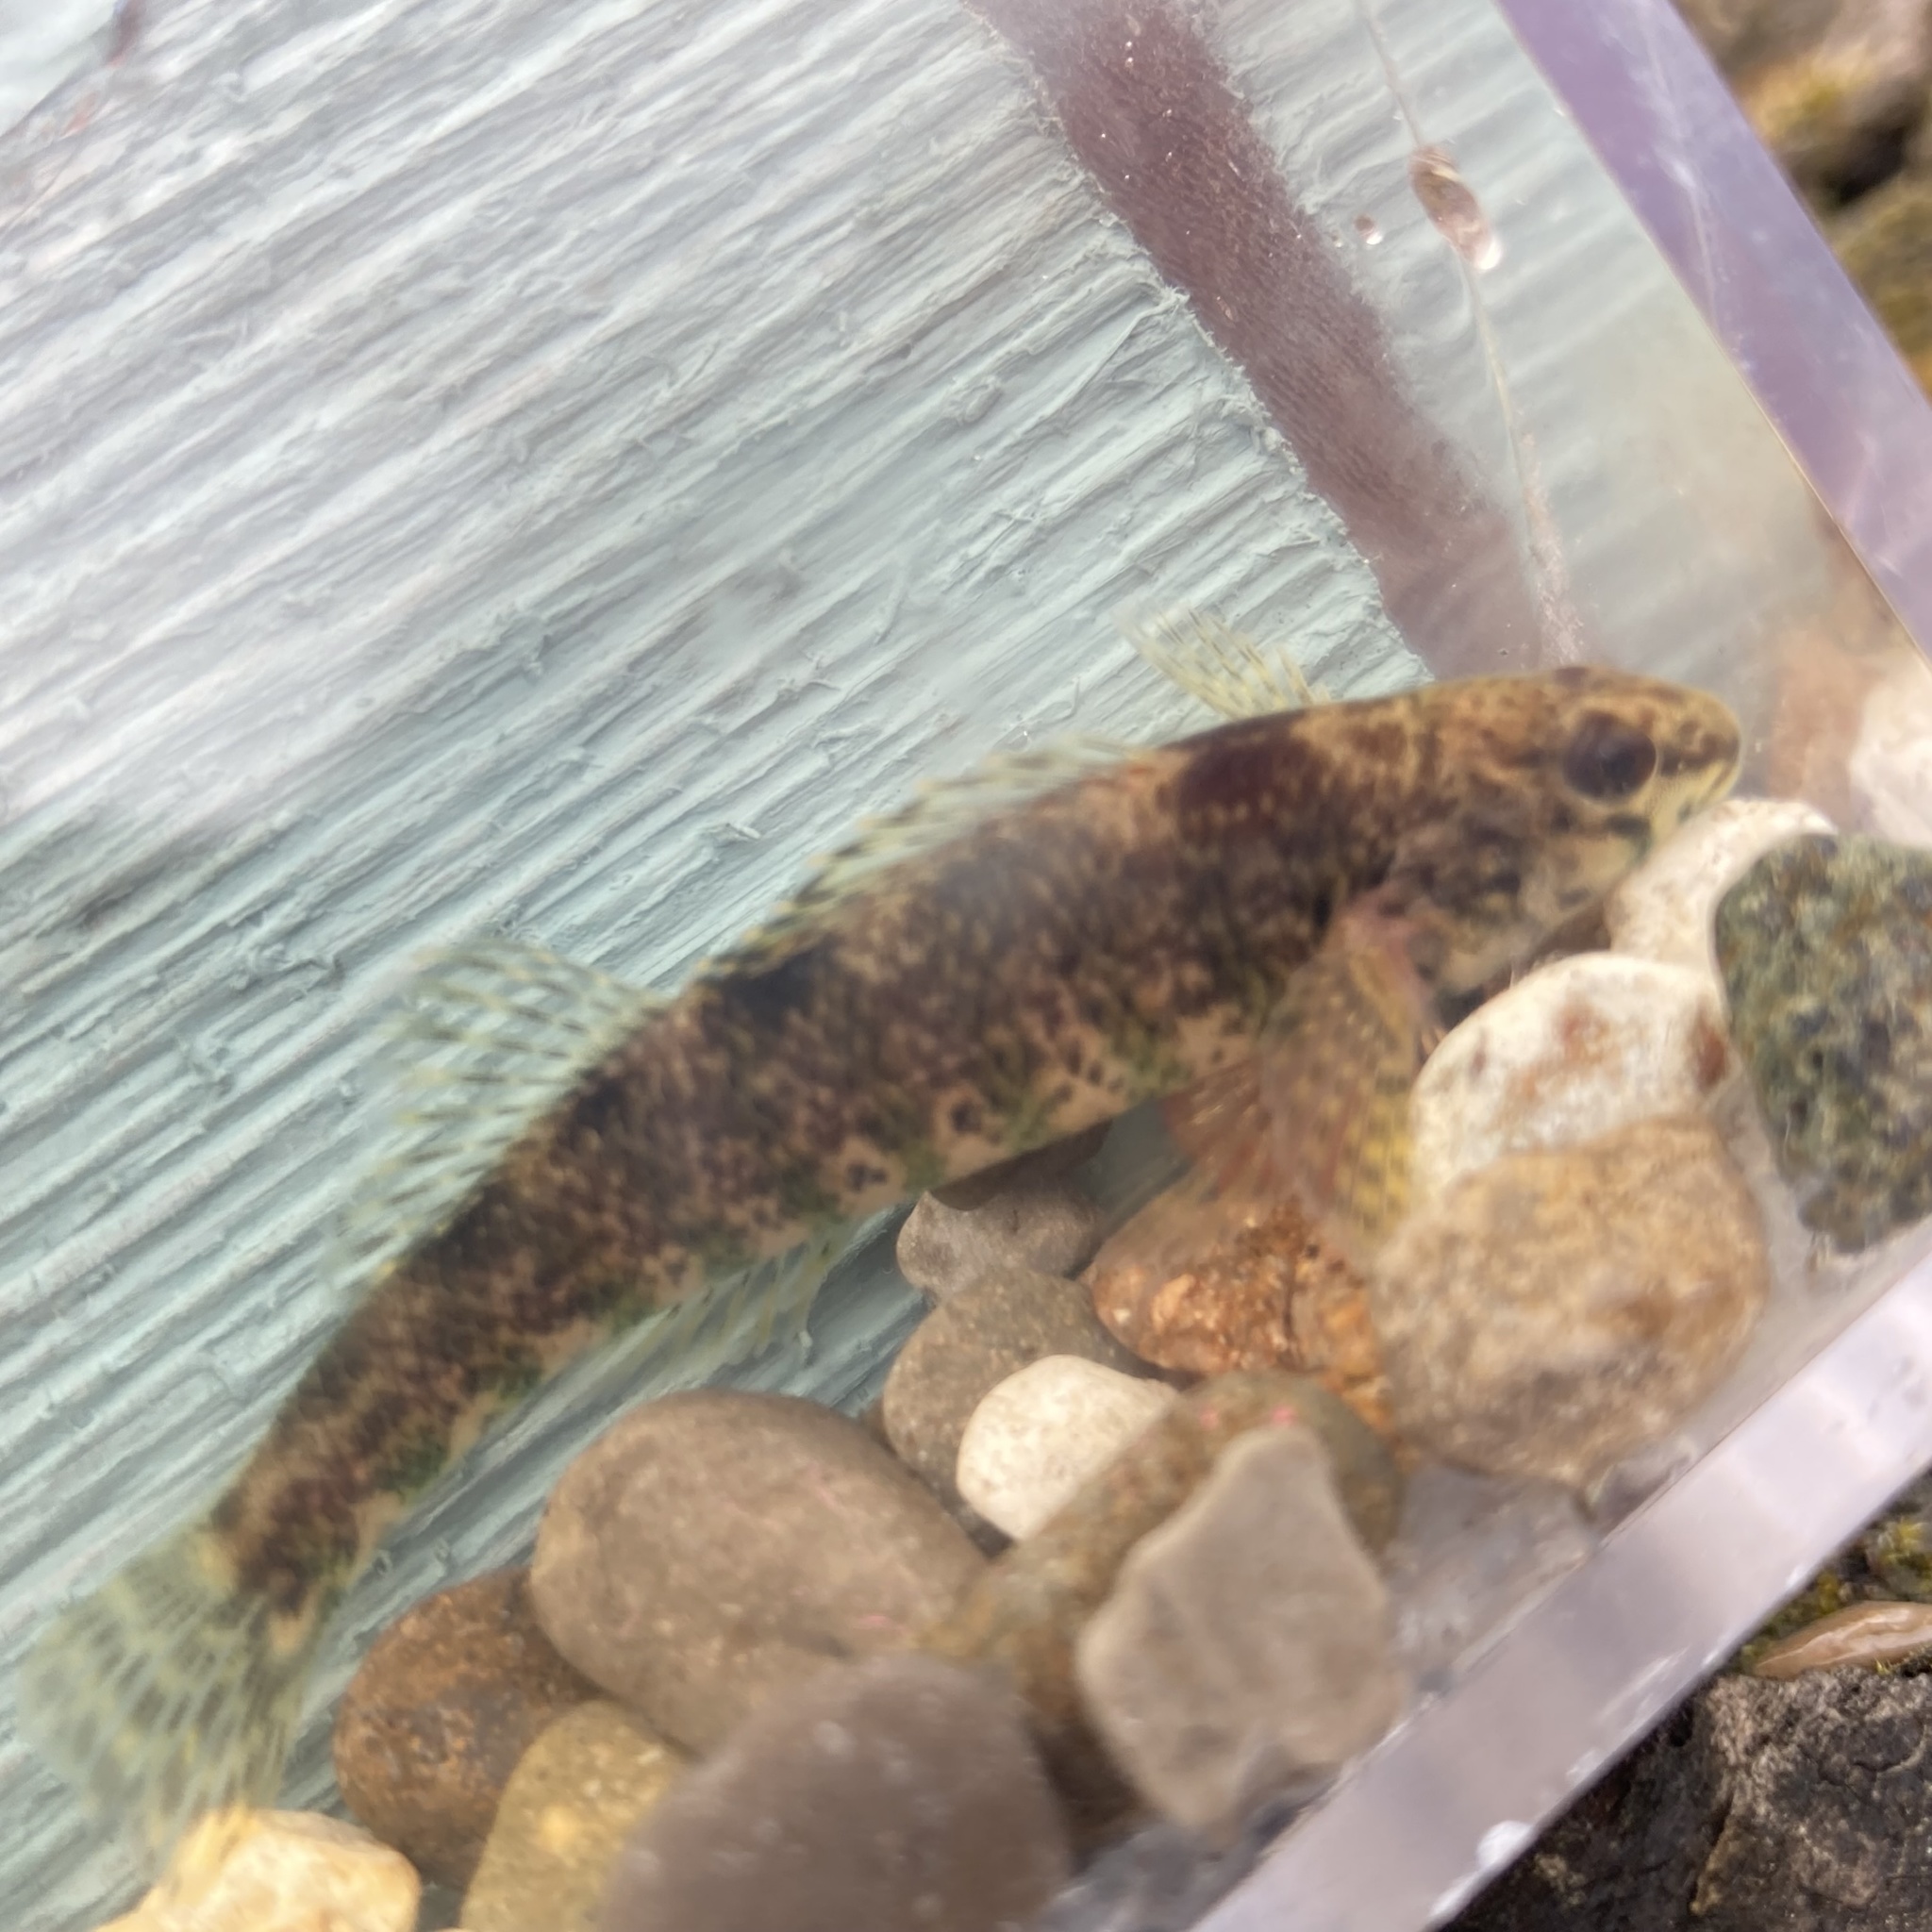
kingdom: Animalia
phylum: Chordata
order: Perciformes
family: Percidae
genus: Etheostoma
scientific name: Etheostoma zonale
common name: Banded darter
